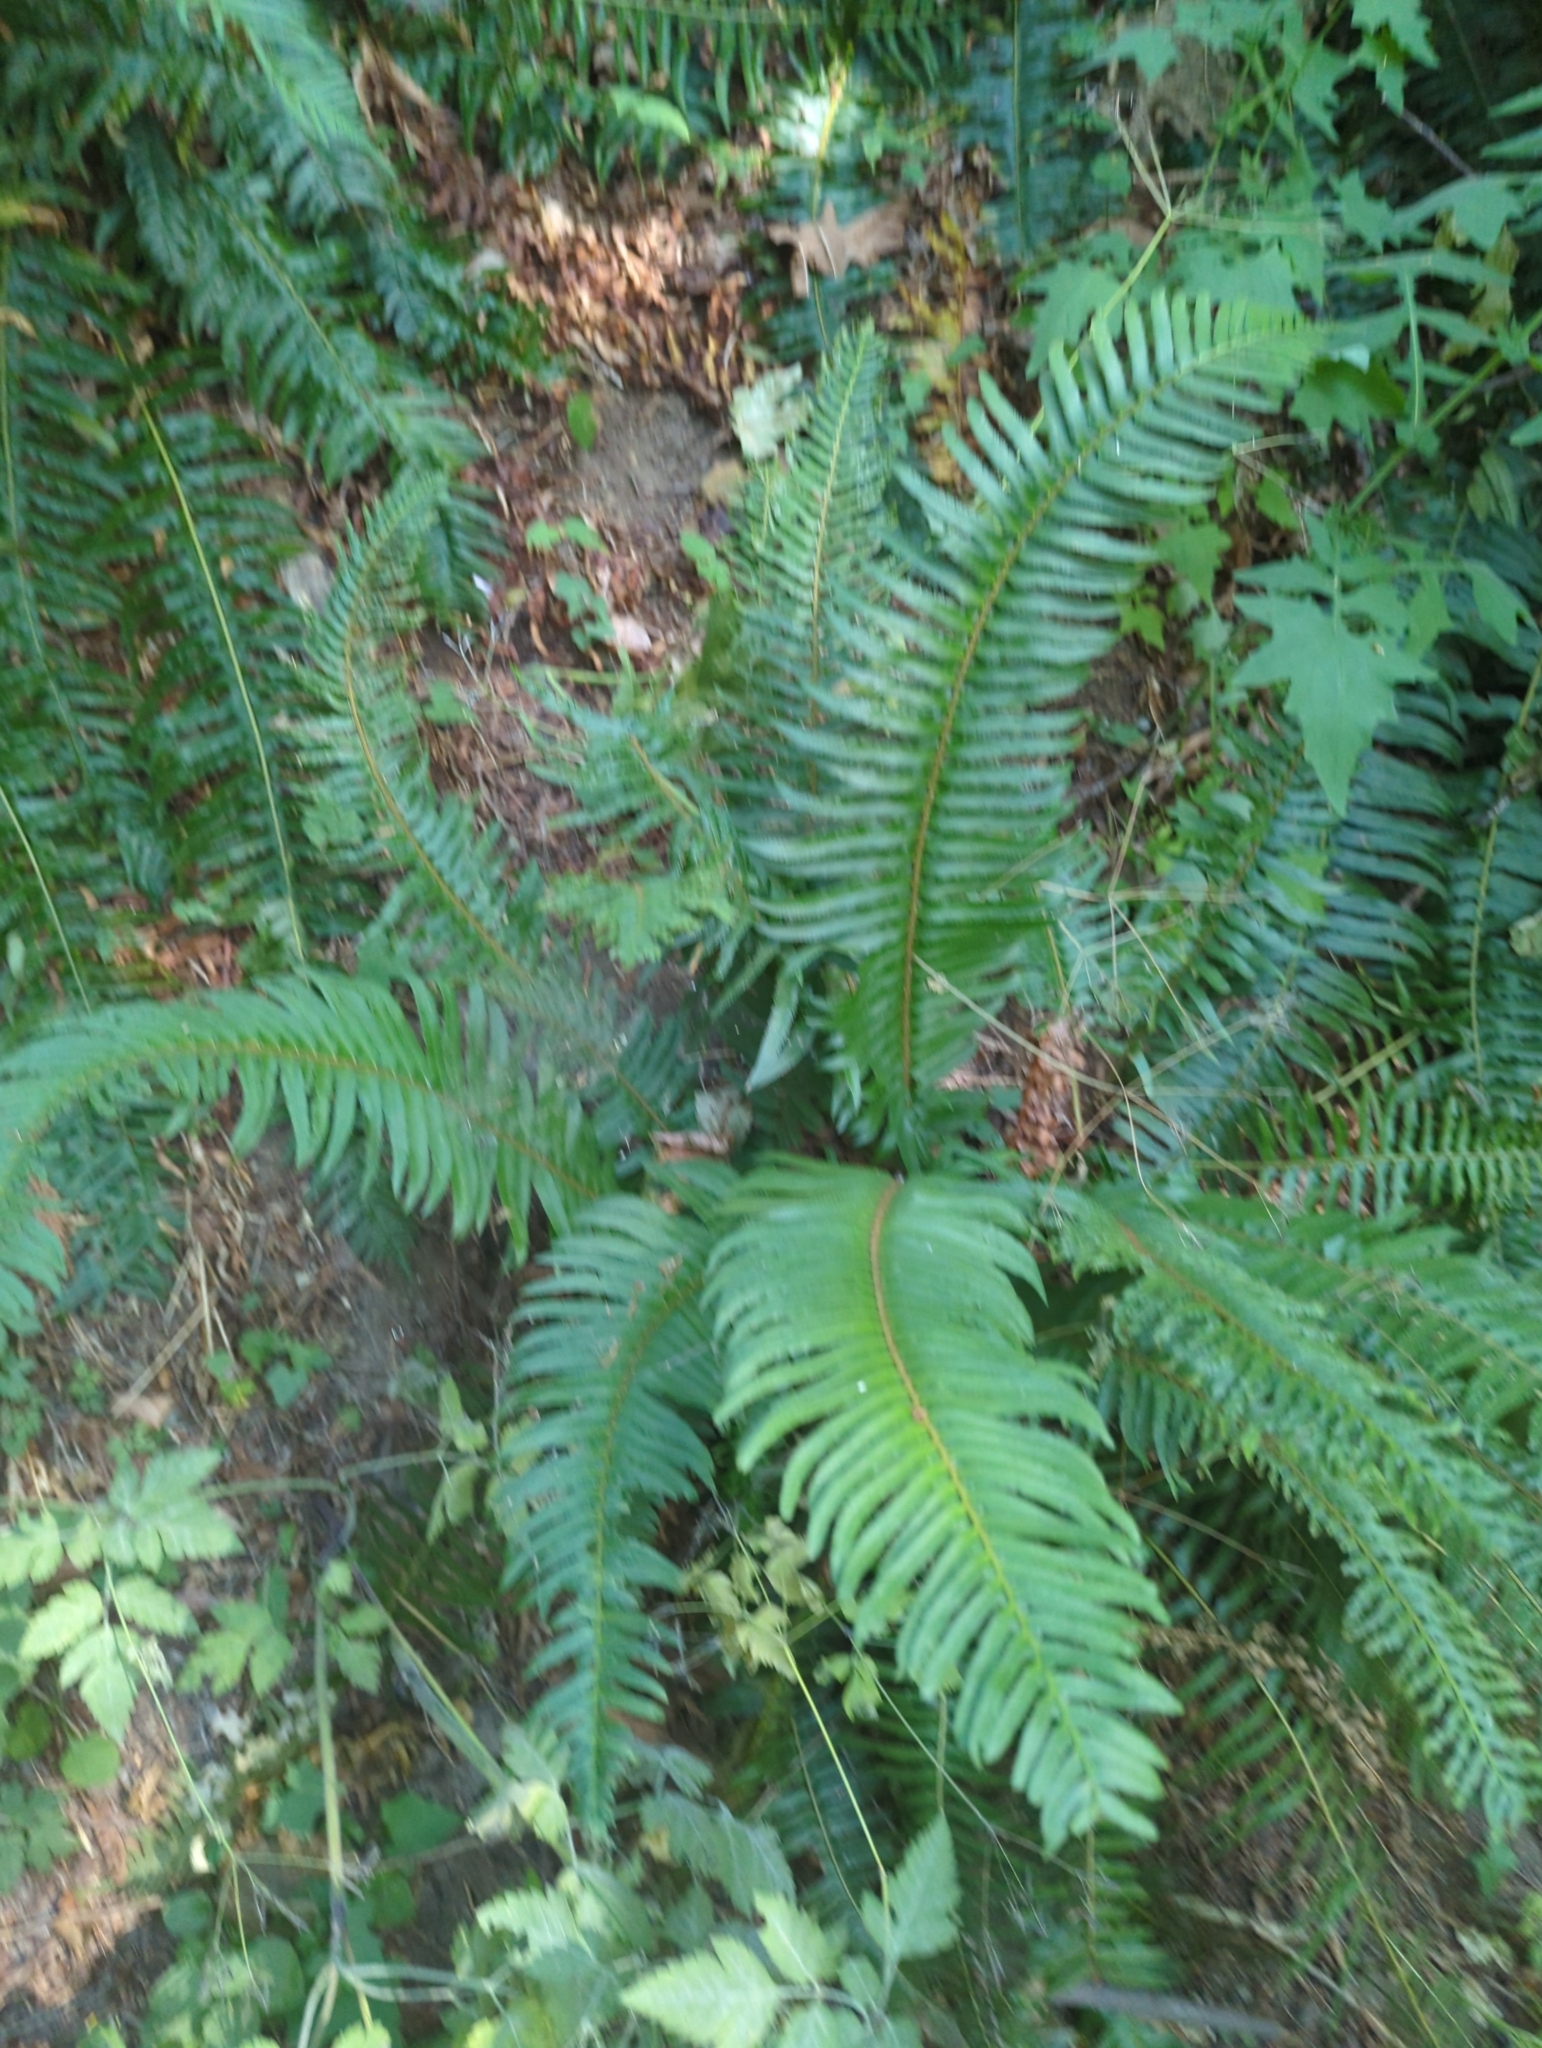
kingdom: Plantae
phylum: Tracheophyta
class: Polypodiopsida
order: Polypodiales
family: Dryopteridaceae
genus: Polystichum
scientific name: Polystichum munitum
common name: Western sword-fern
